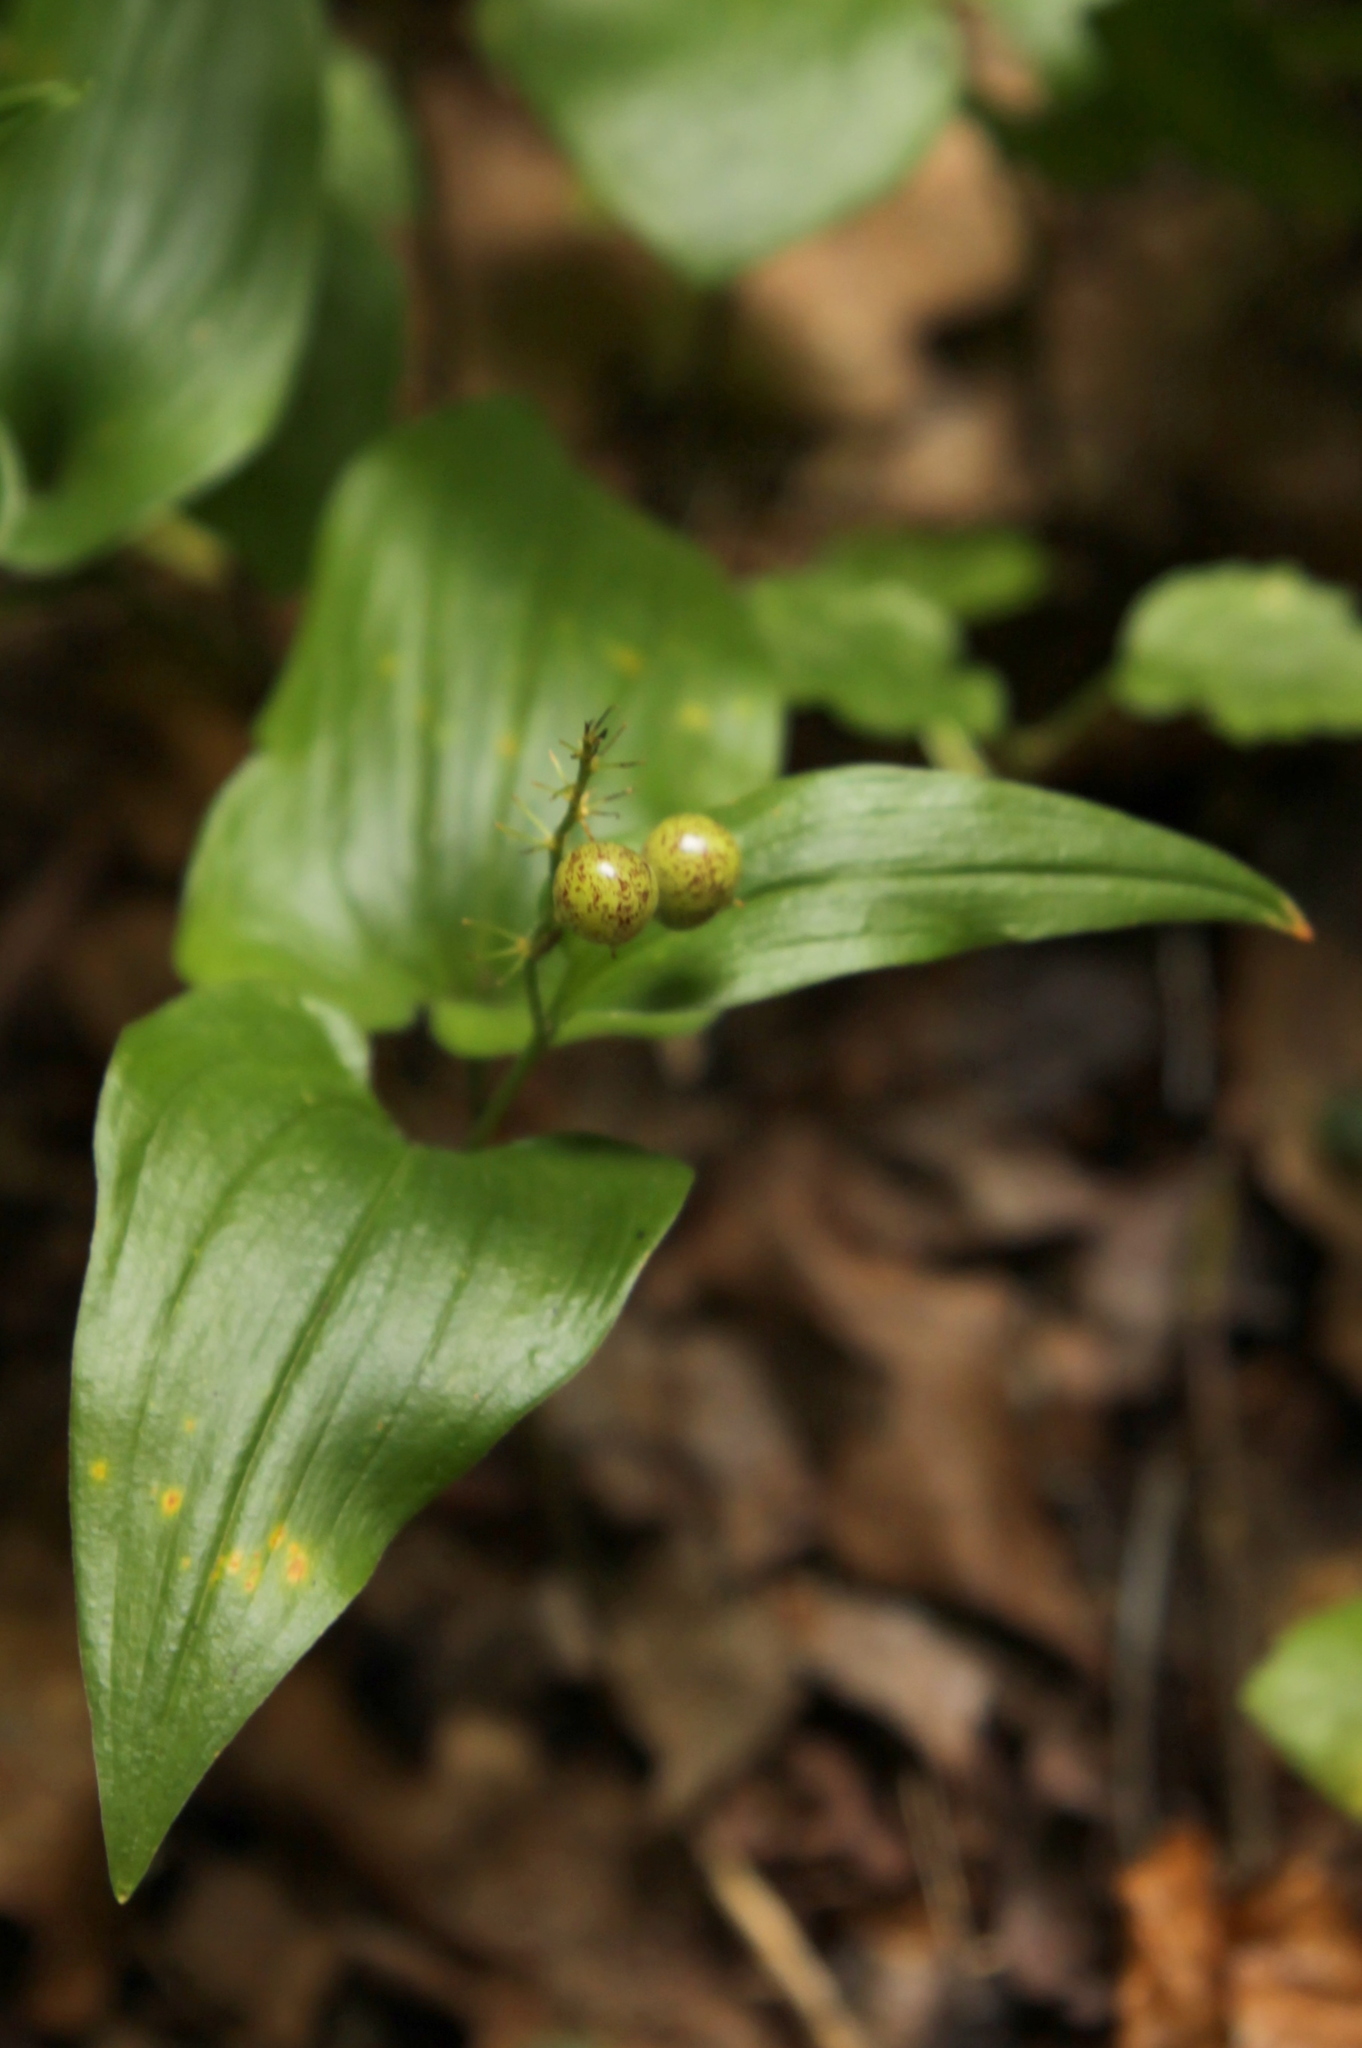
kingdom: Plantae
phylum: Tracheophyta
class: Liliopsida
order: Asparagales
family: Asparagaceae
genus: Maianthemum
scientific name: Maianthemum bifolium
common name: May lily
